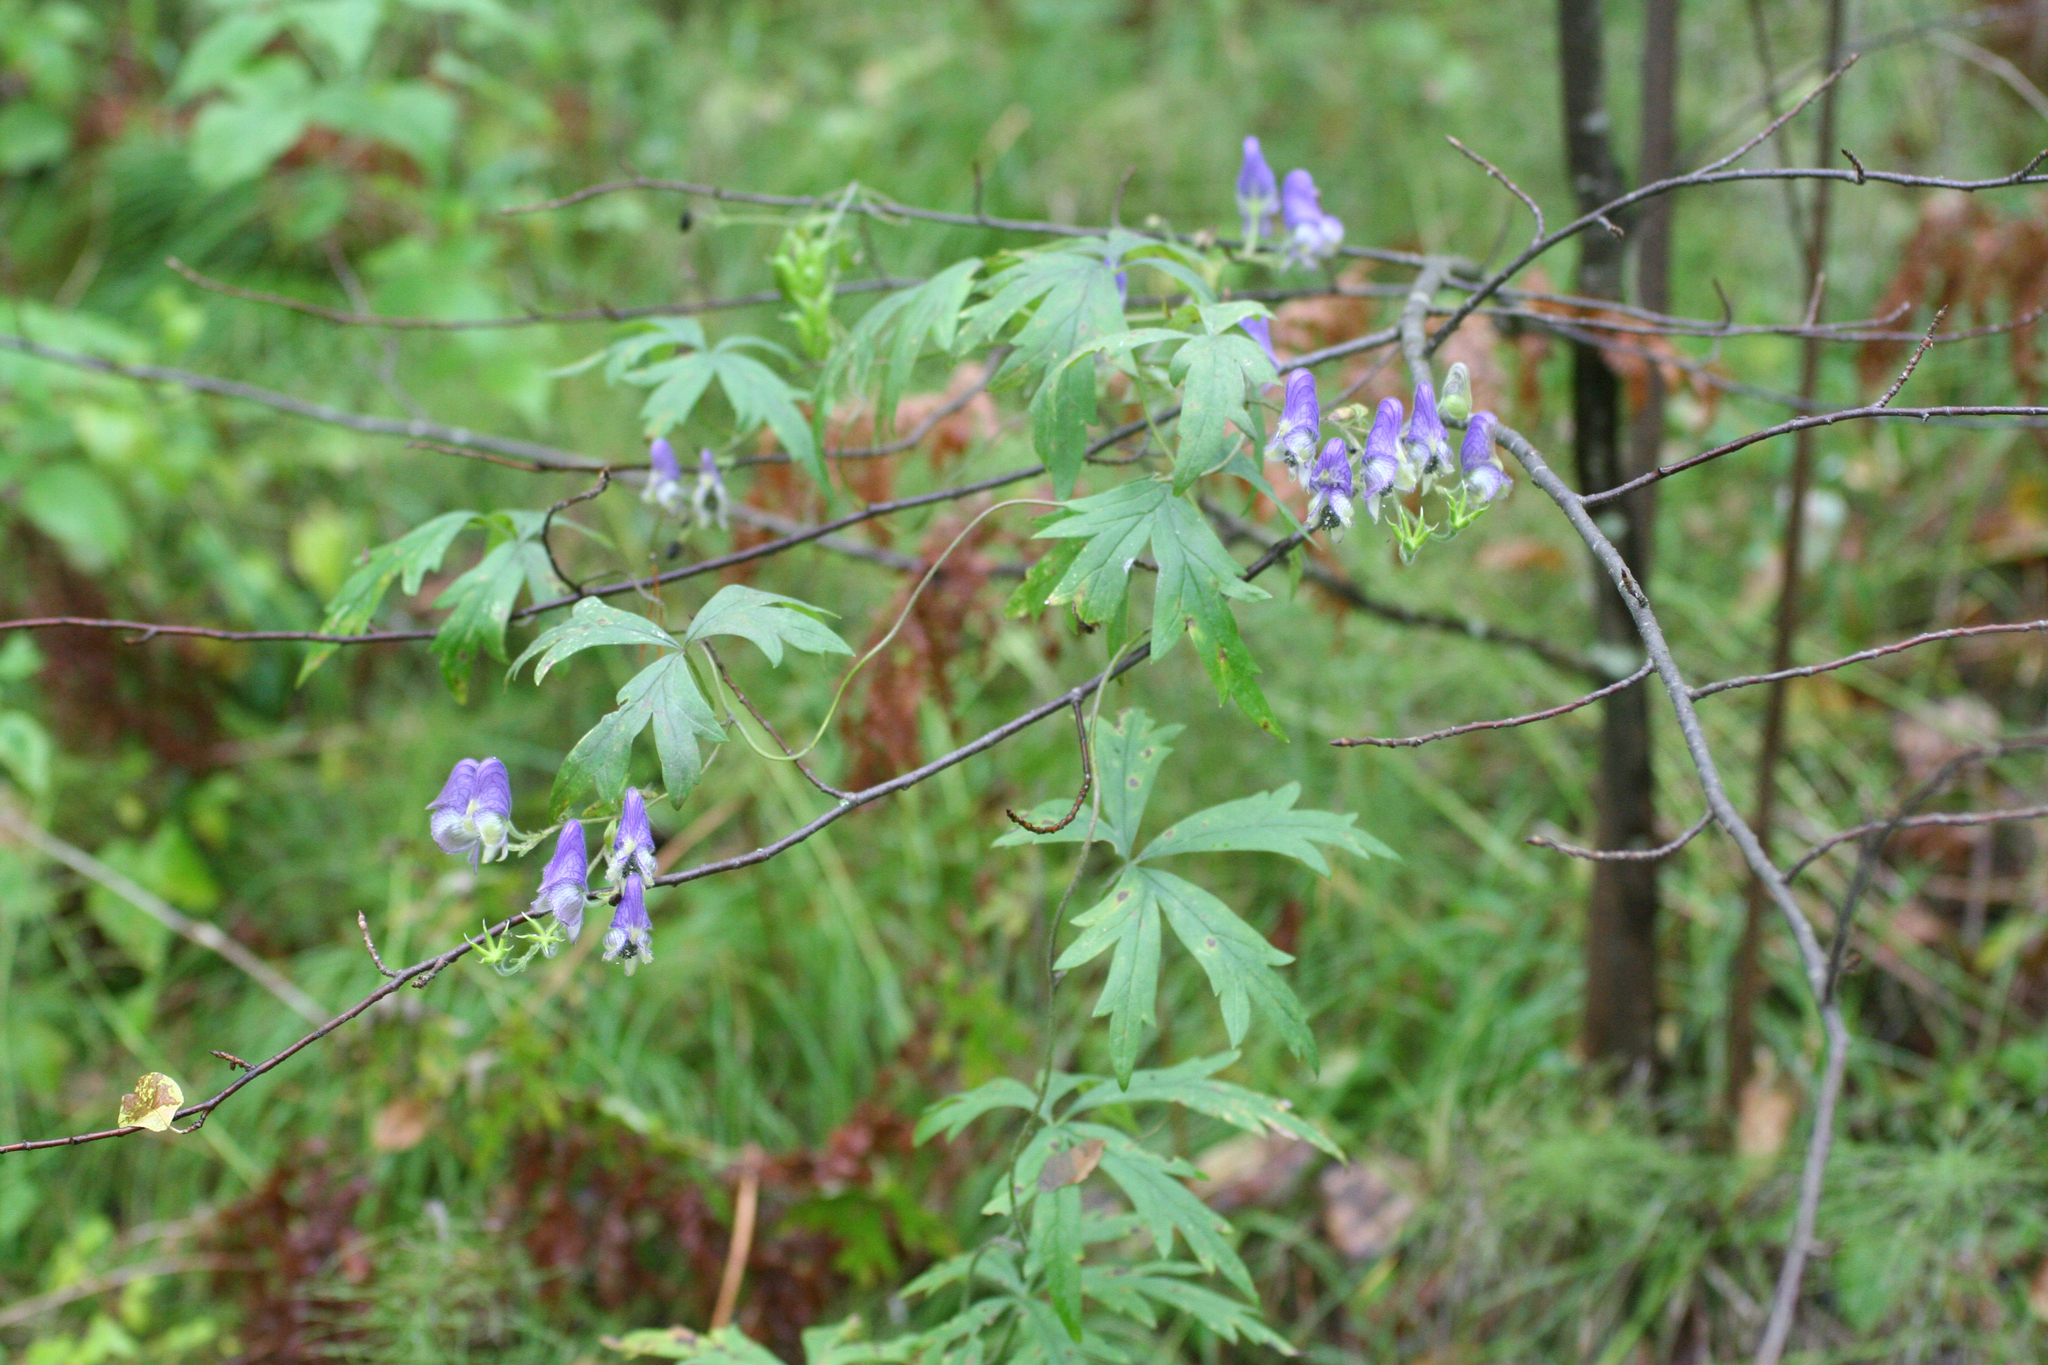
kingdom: Plantae
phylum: Tracheophyta
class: Magnoliopsida
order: Ranunculales
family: Ranunculaceae
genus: Aconitum
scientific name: Aconitum volubile
